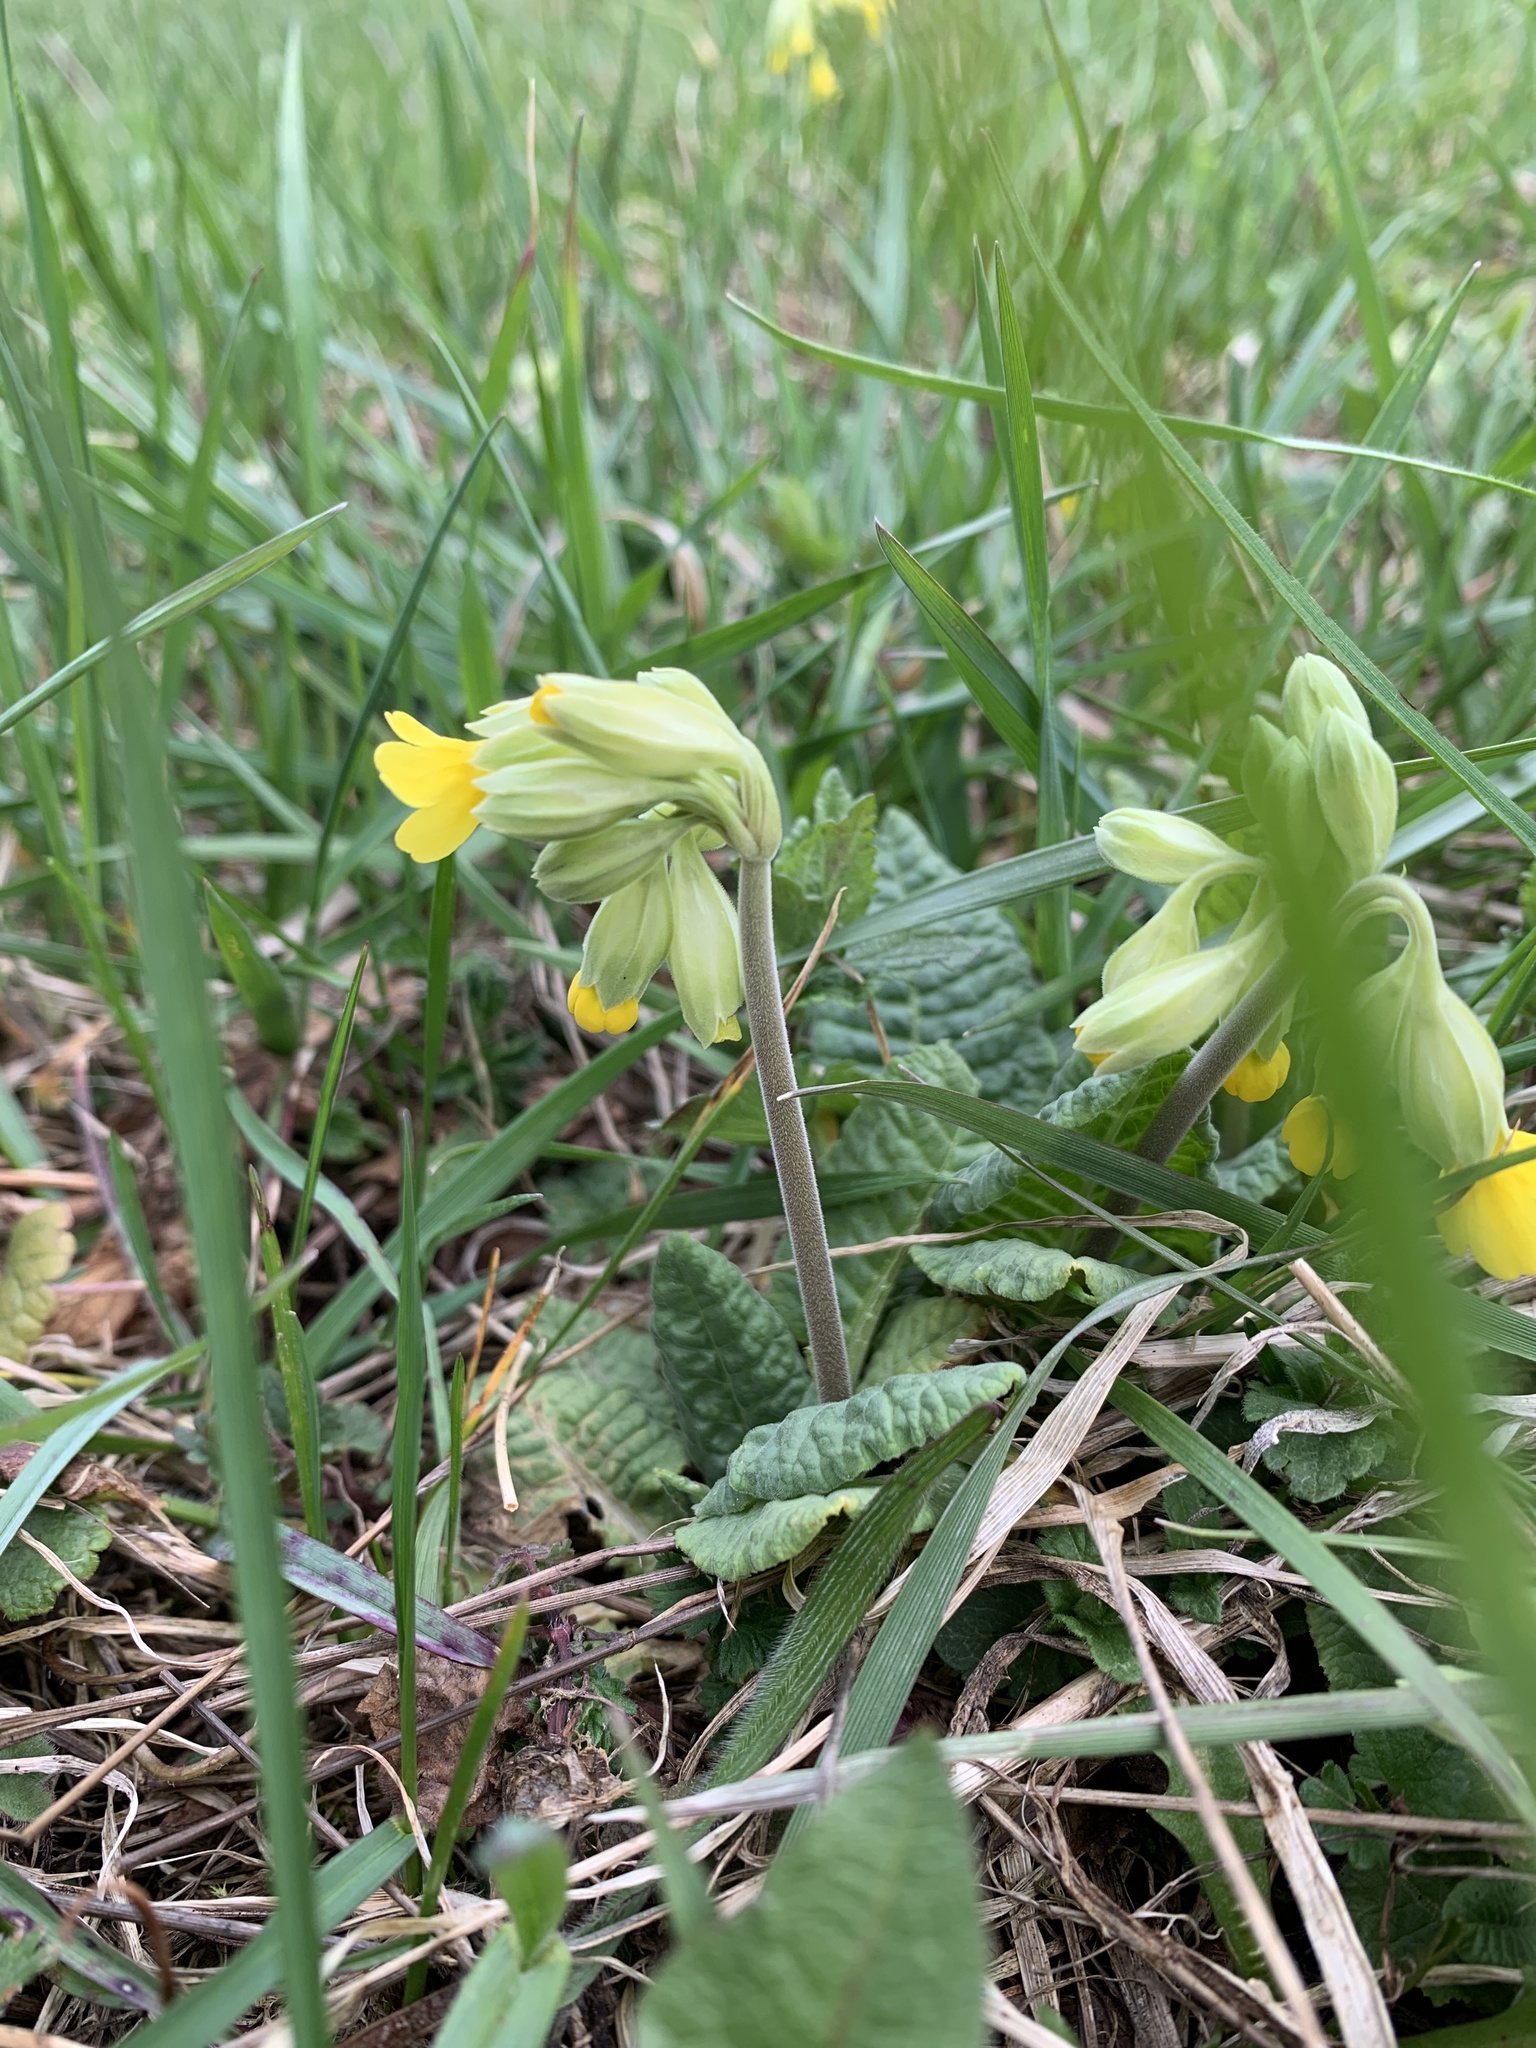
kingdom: Plantae
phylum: Tracheophyta
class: Magnoliopsida
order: Ericales
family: Primulaceae
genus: Primula
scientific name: Primula veris
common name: Cowslip
